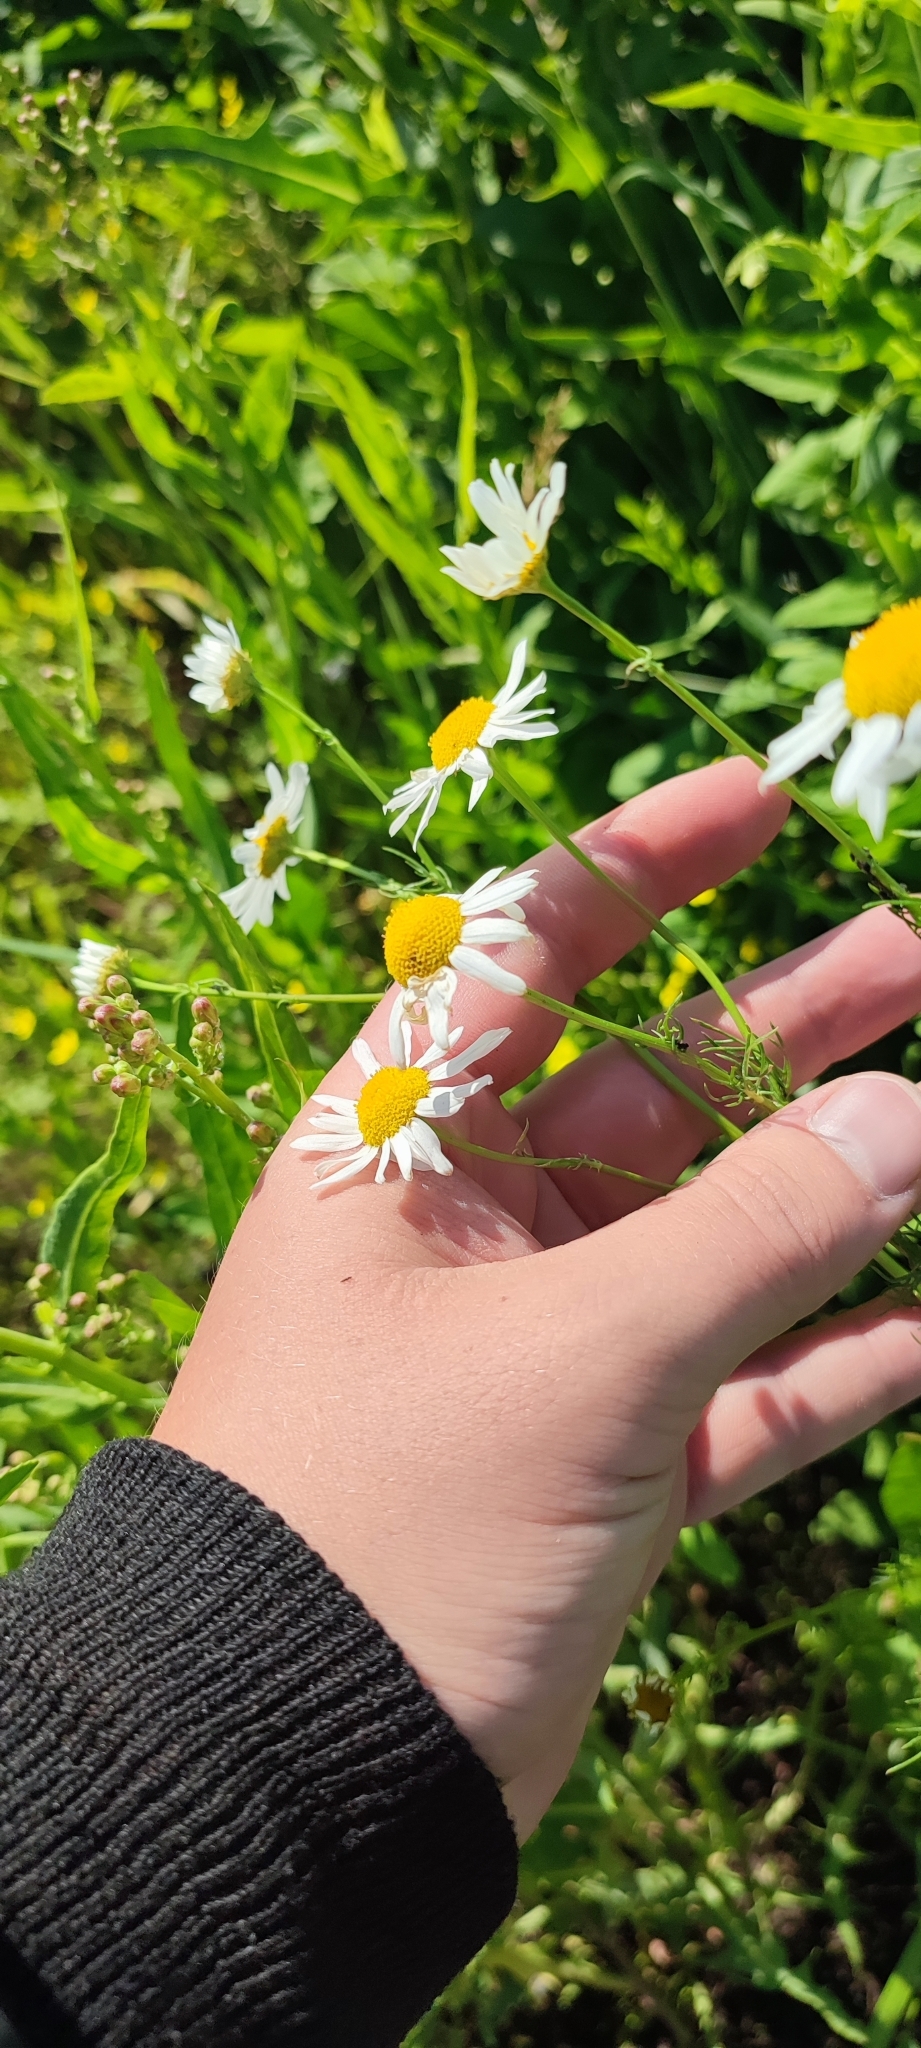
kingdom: Plantae
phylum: Tracheophyta
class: Magnoliopsida
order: Asterales
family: Asteraceae
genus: Tripleurospermum
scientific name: Tripleurospermum inodorum
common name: Scentless mayweed
